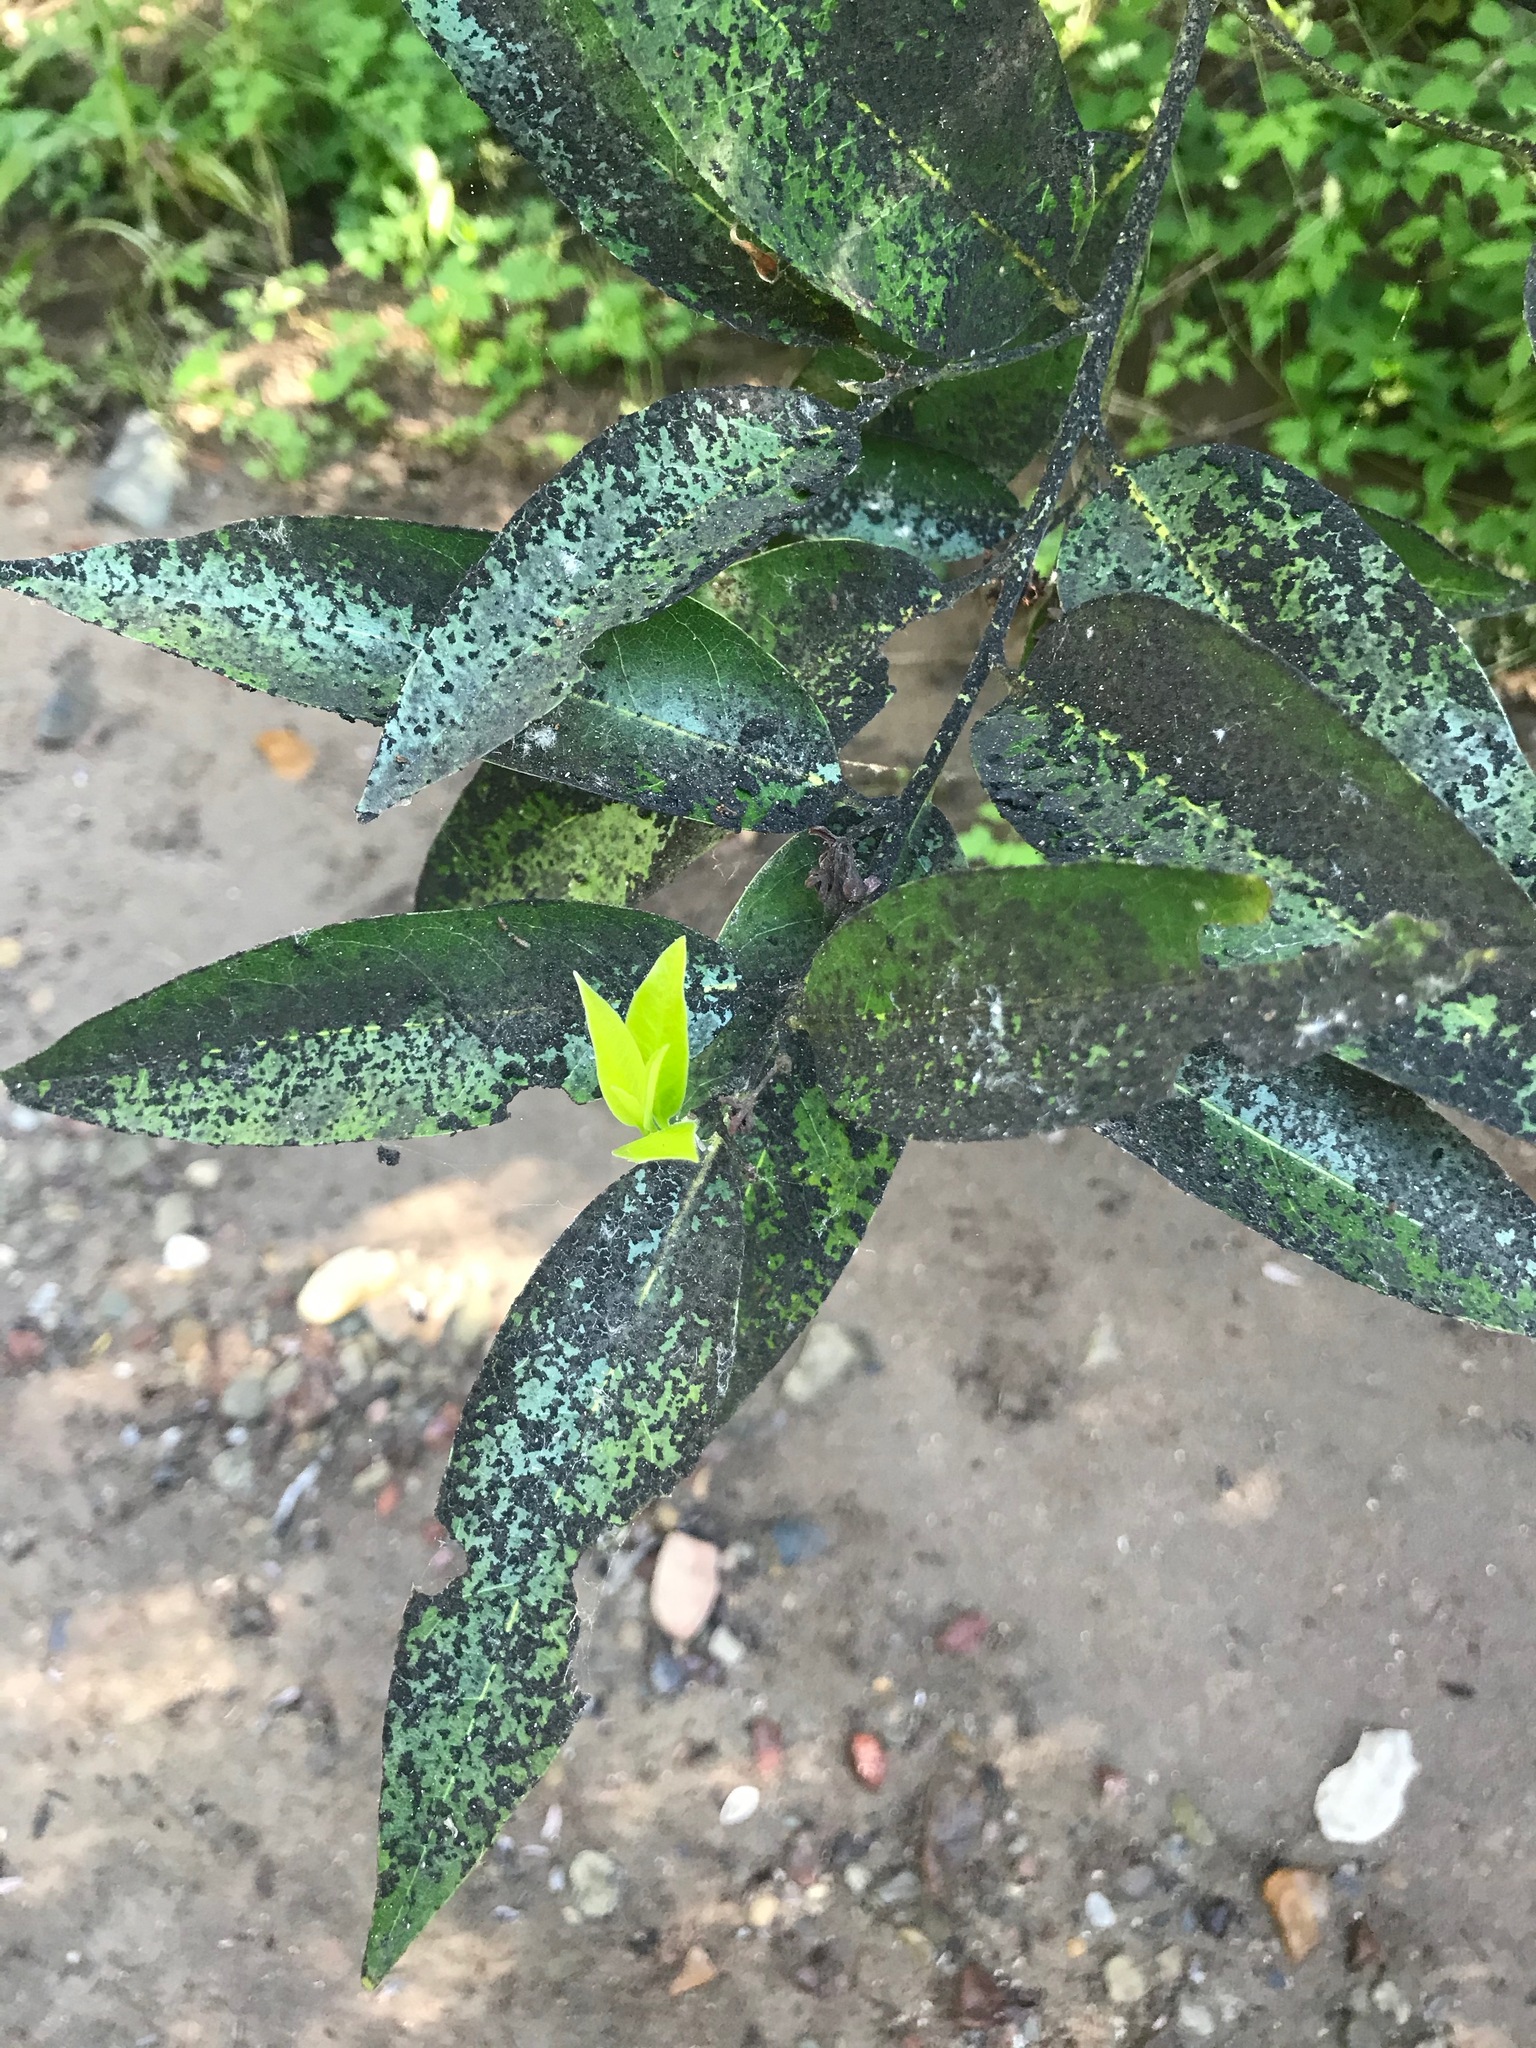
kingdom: Plantae
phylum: Tracheophyta
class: Magnoliopsida
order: Laurales
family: Lauraceae
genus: Umbellularia
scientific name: Umbellularia californica
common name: California bay
